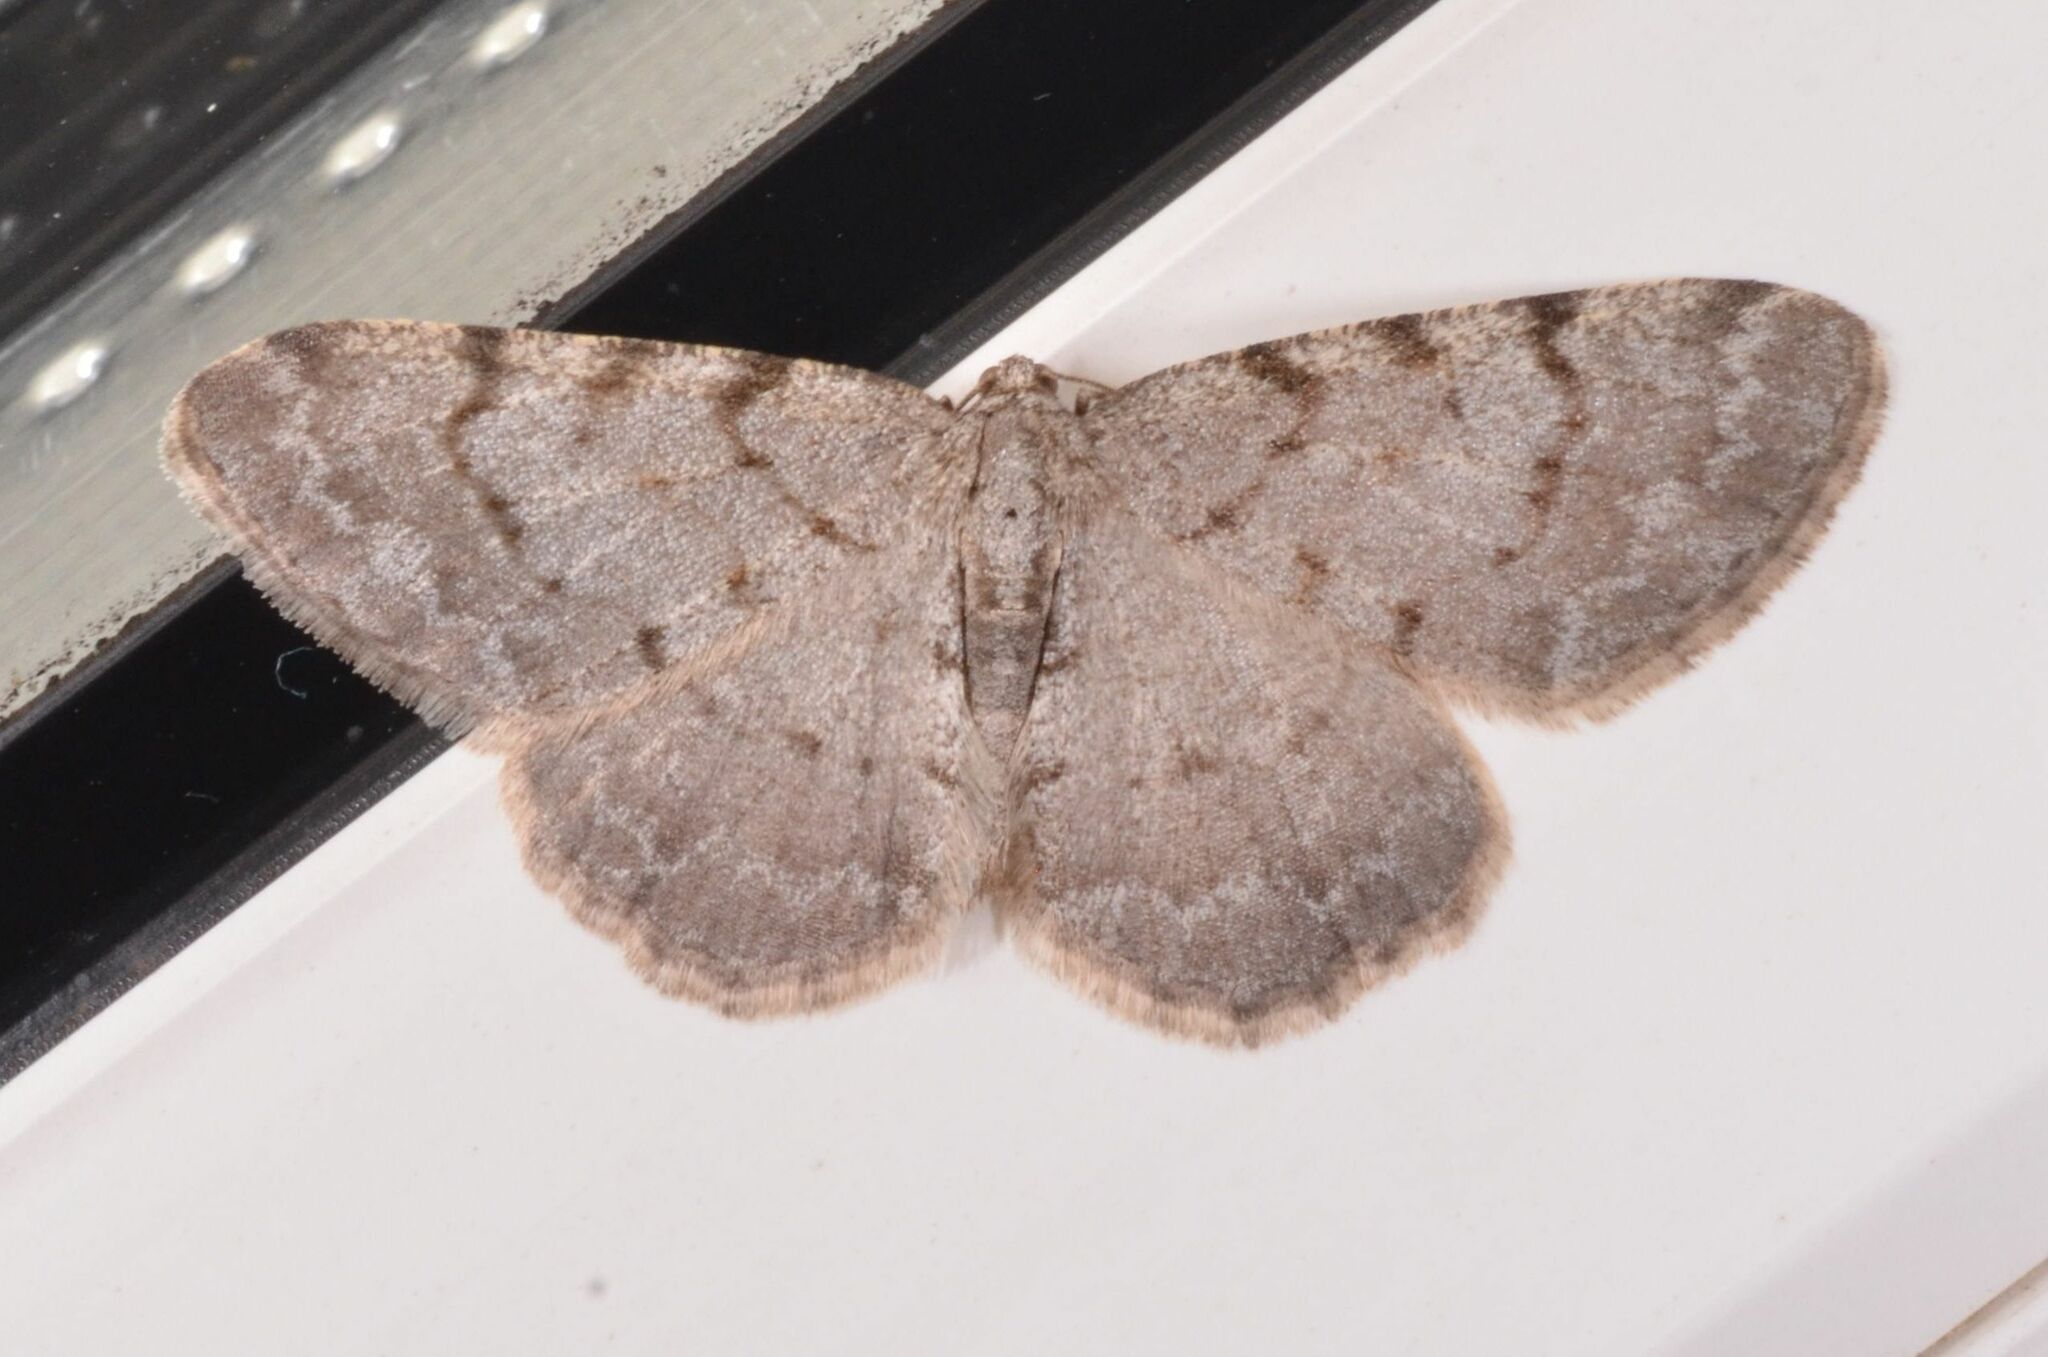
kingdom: Animalia
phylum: Arthropoda
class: Insecta
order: Lepidoptera
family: Geometridae
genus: Aethalura
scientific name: Aethalura punctulata
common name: Grey birch
